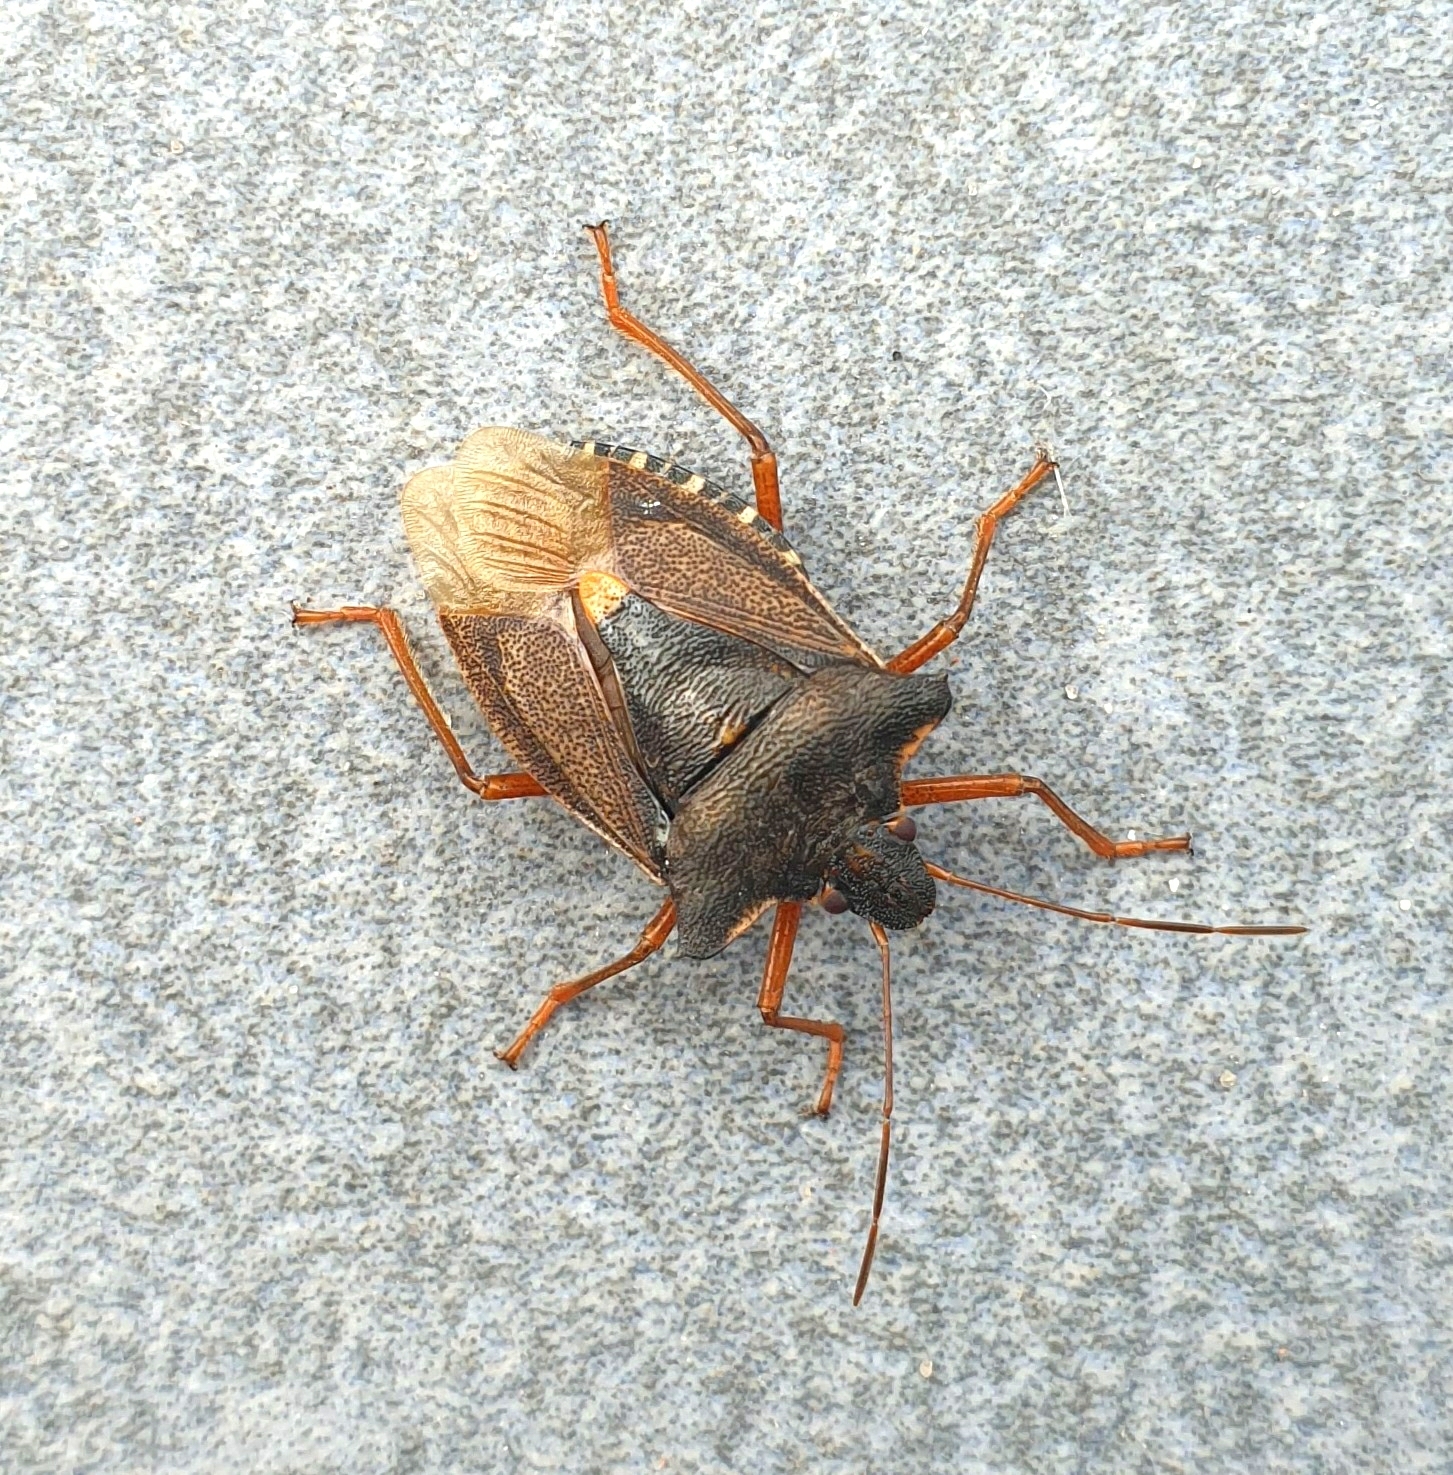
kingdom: Animalia
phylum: Arthropoda
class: Insecta
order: Hemiptera
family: Pentatomidae
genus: Pentatoma
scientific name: Pentatoma rufipes
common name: Forest bug
